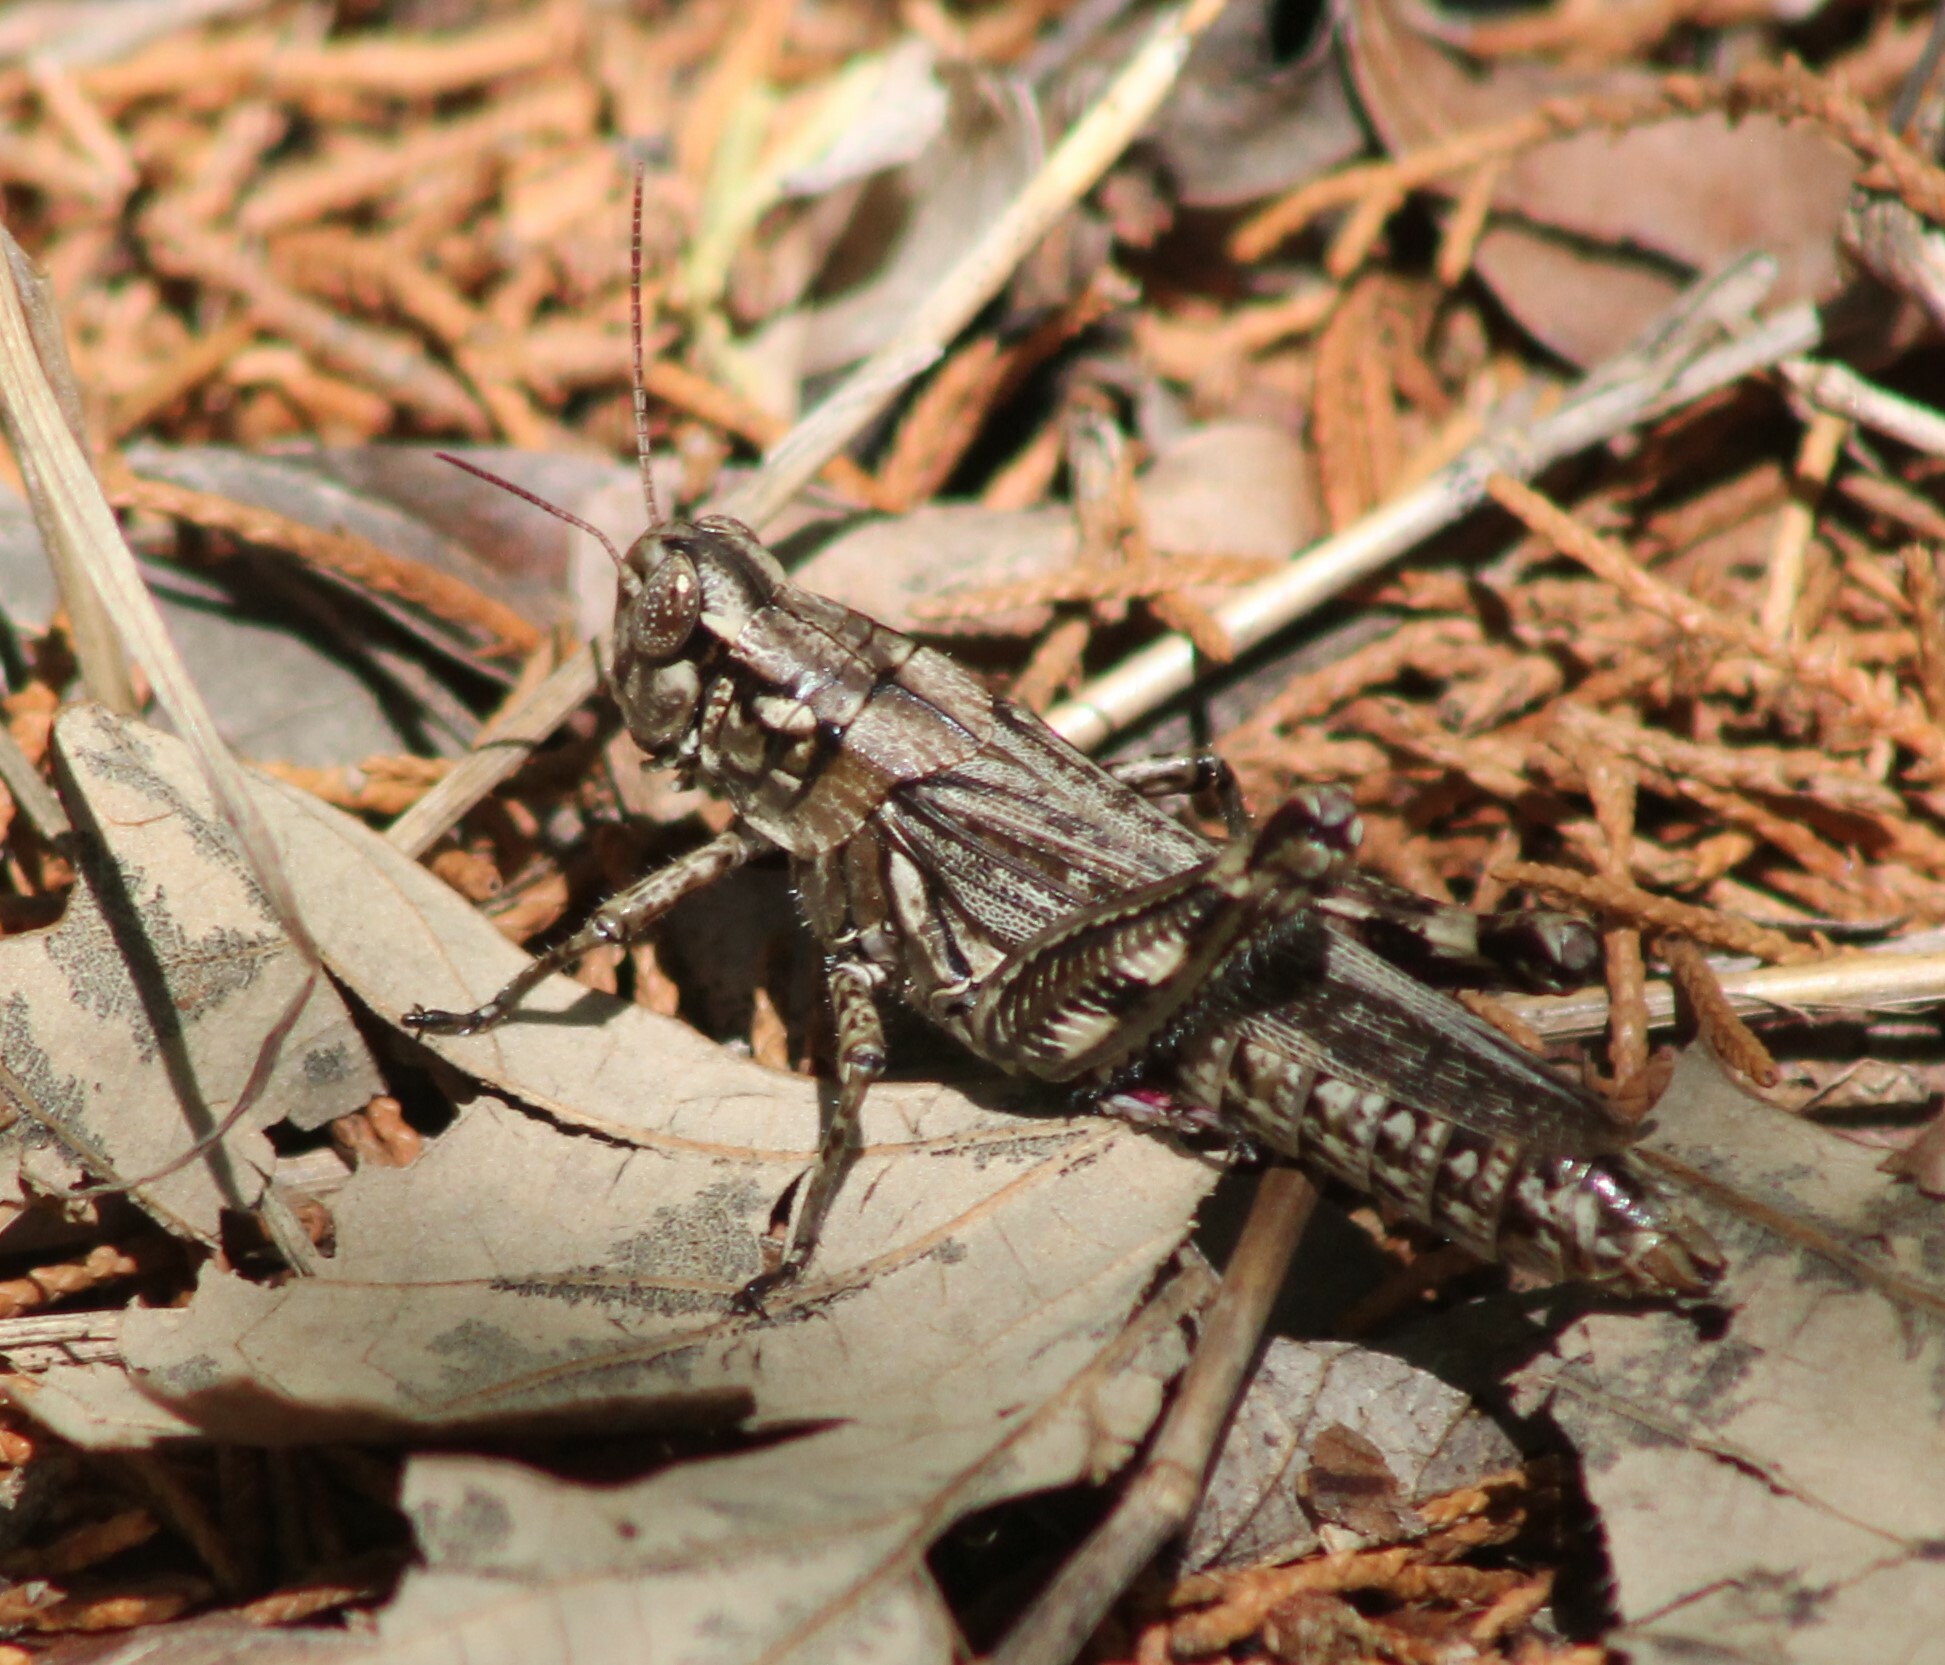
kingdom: Animalia
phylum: Arthropoda
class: Insecta
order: Orthoptera
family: Acrididae
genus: Melanoplus
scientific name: Melanoplus macclungi
